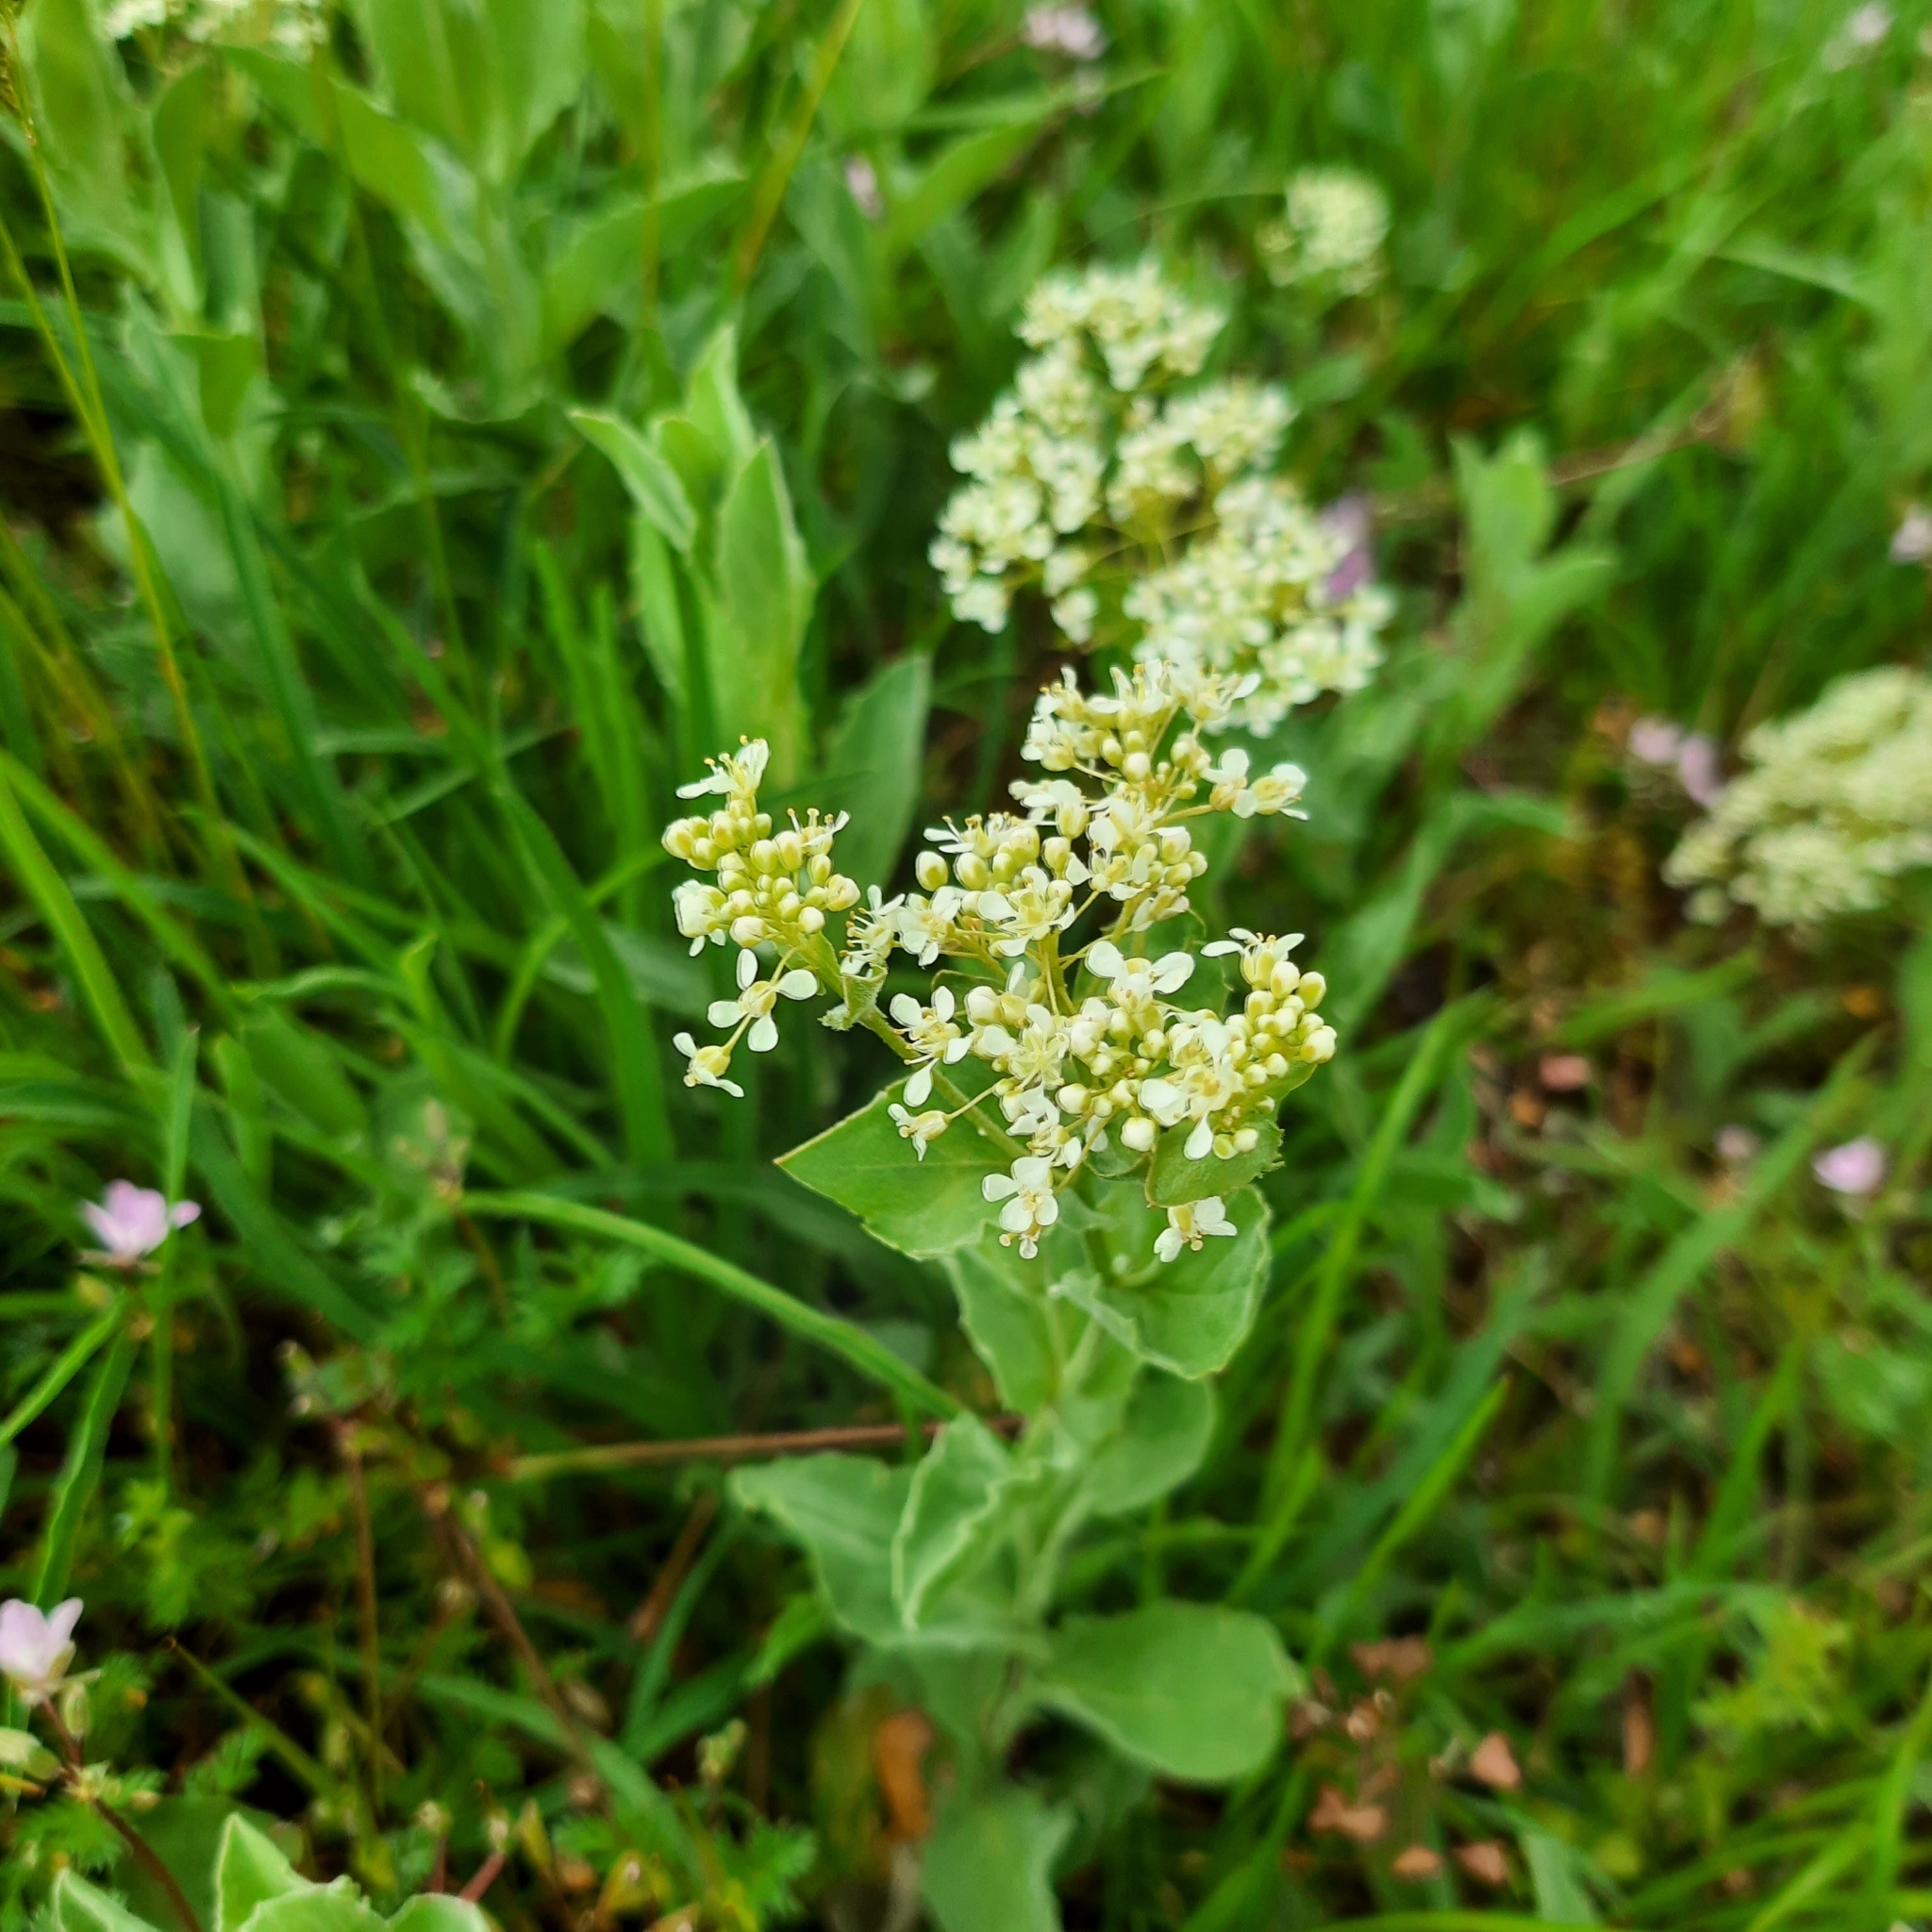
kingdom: Plantae
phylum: Tracheophyta
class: Magnoliopsida
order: Brassicales
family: Brassicaceae
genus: Lepidium
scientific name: Lepidium draba
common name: Hoary cress
